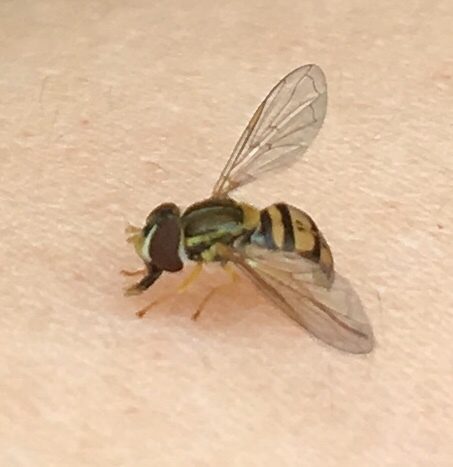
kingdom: Animalia
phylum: Arthropoda
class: Insecta
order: Diptera
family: Syrphidae
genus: Toxomerus
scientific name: Toxomerus marginatus
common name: Syrphid fly
